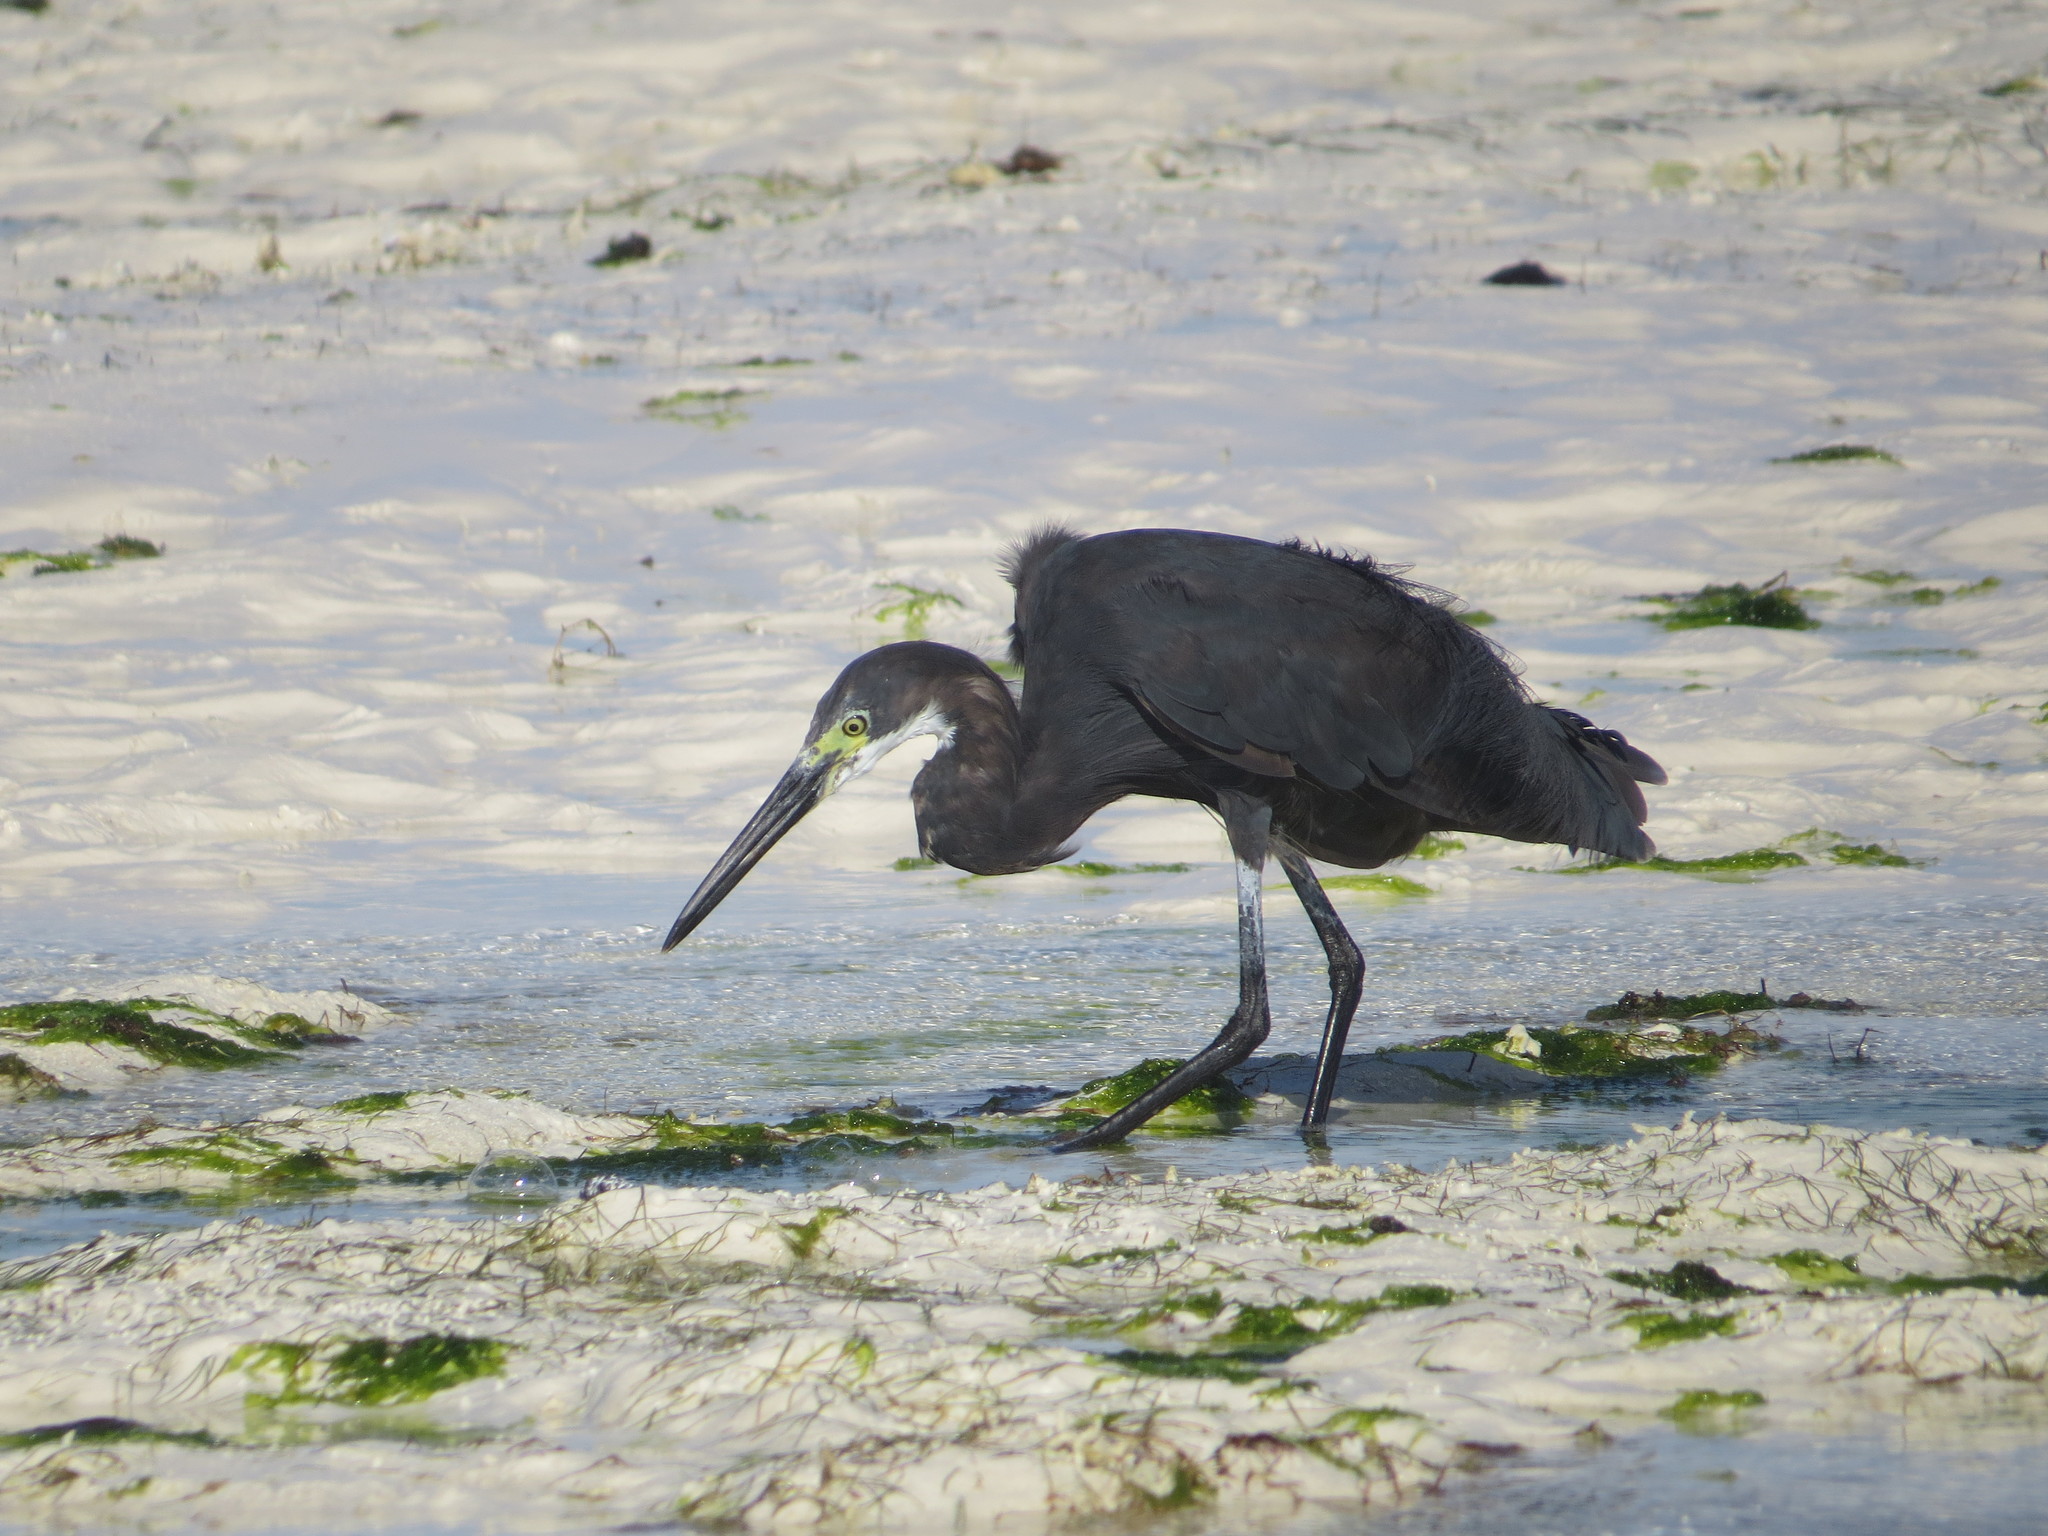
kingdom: Animalia
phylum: Chordata
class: Aves
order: Pelecaniformes
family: Ardeidae
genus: Egretta
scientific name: Egretta dimorpha
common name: Dimorphic egret
